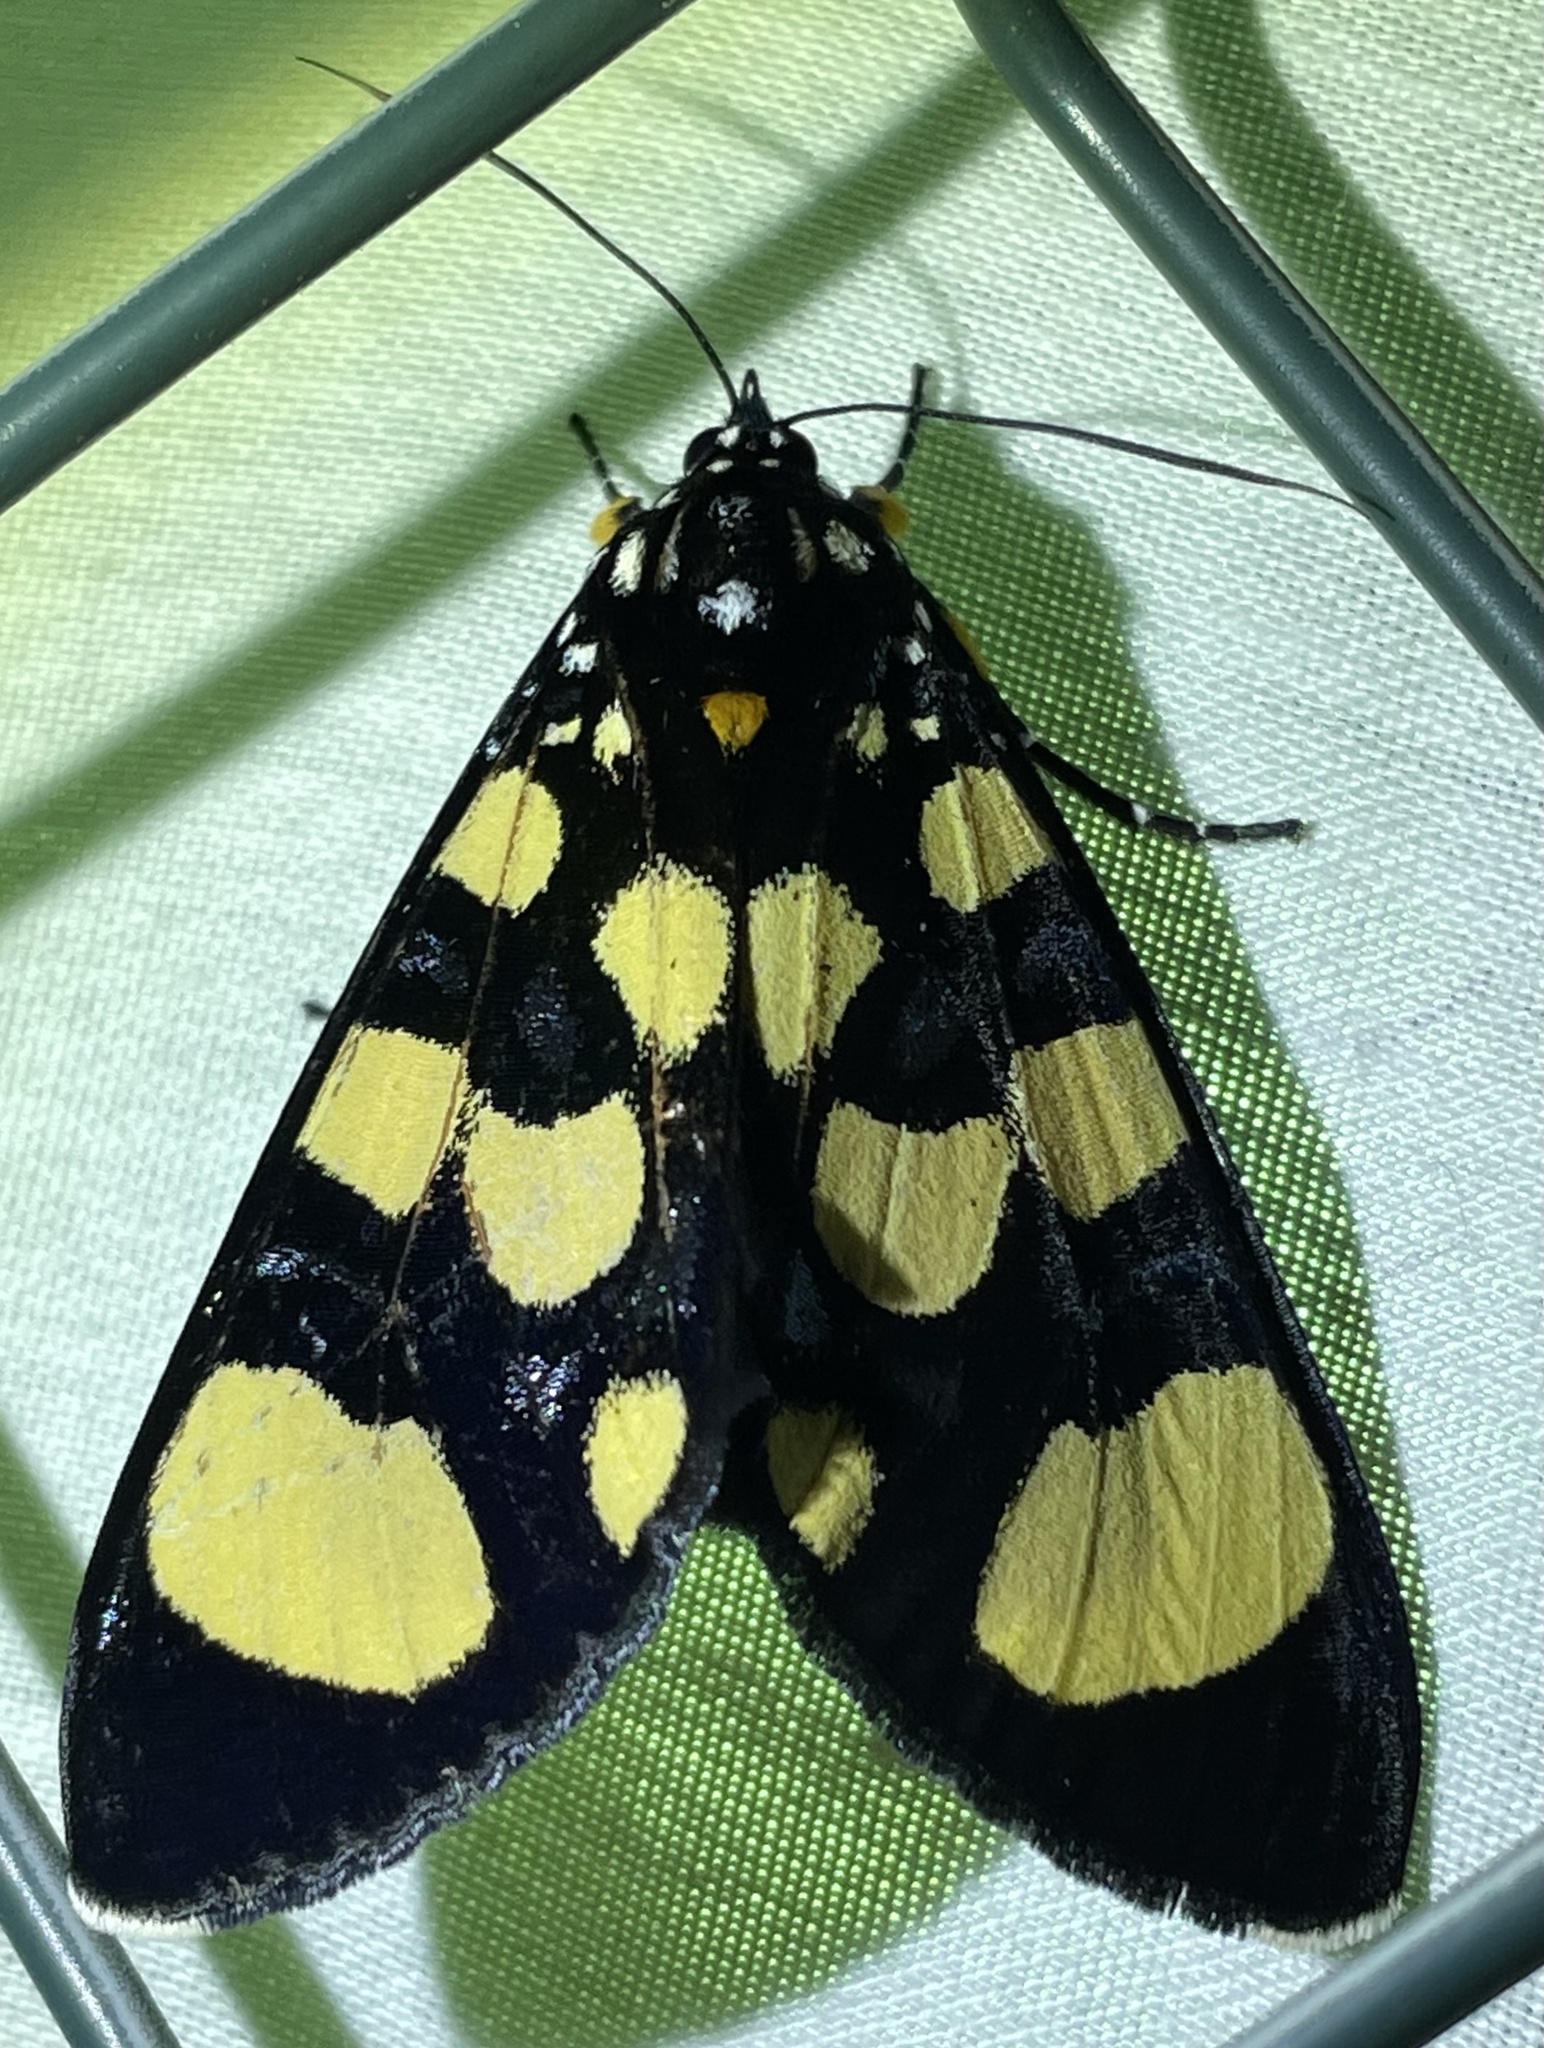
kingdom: Animalia
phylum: Arthropoda
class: Insecta
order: Lepidoptera
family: Noctuidae
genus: Heraclia
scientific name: Heraclia superba
